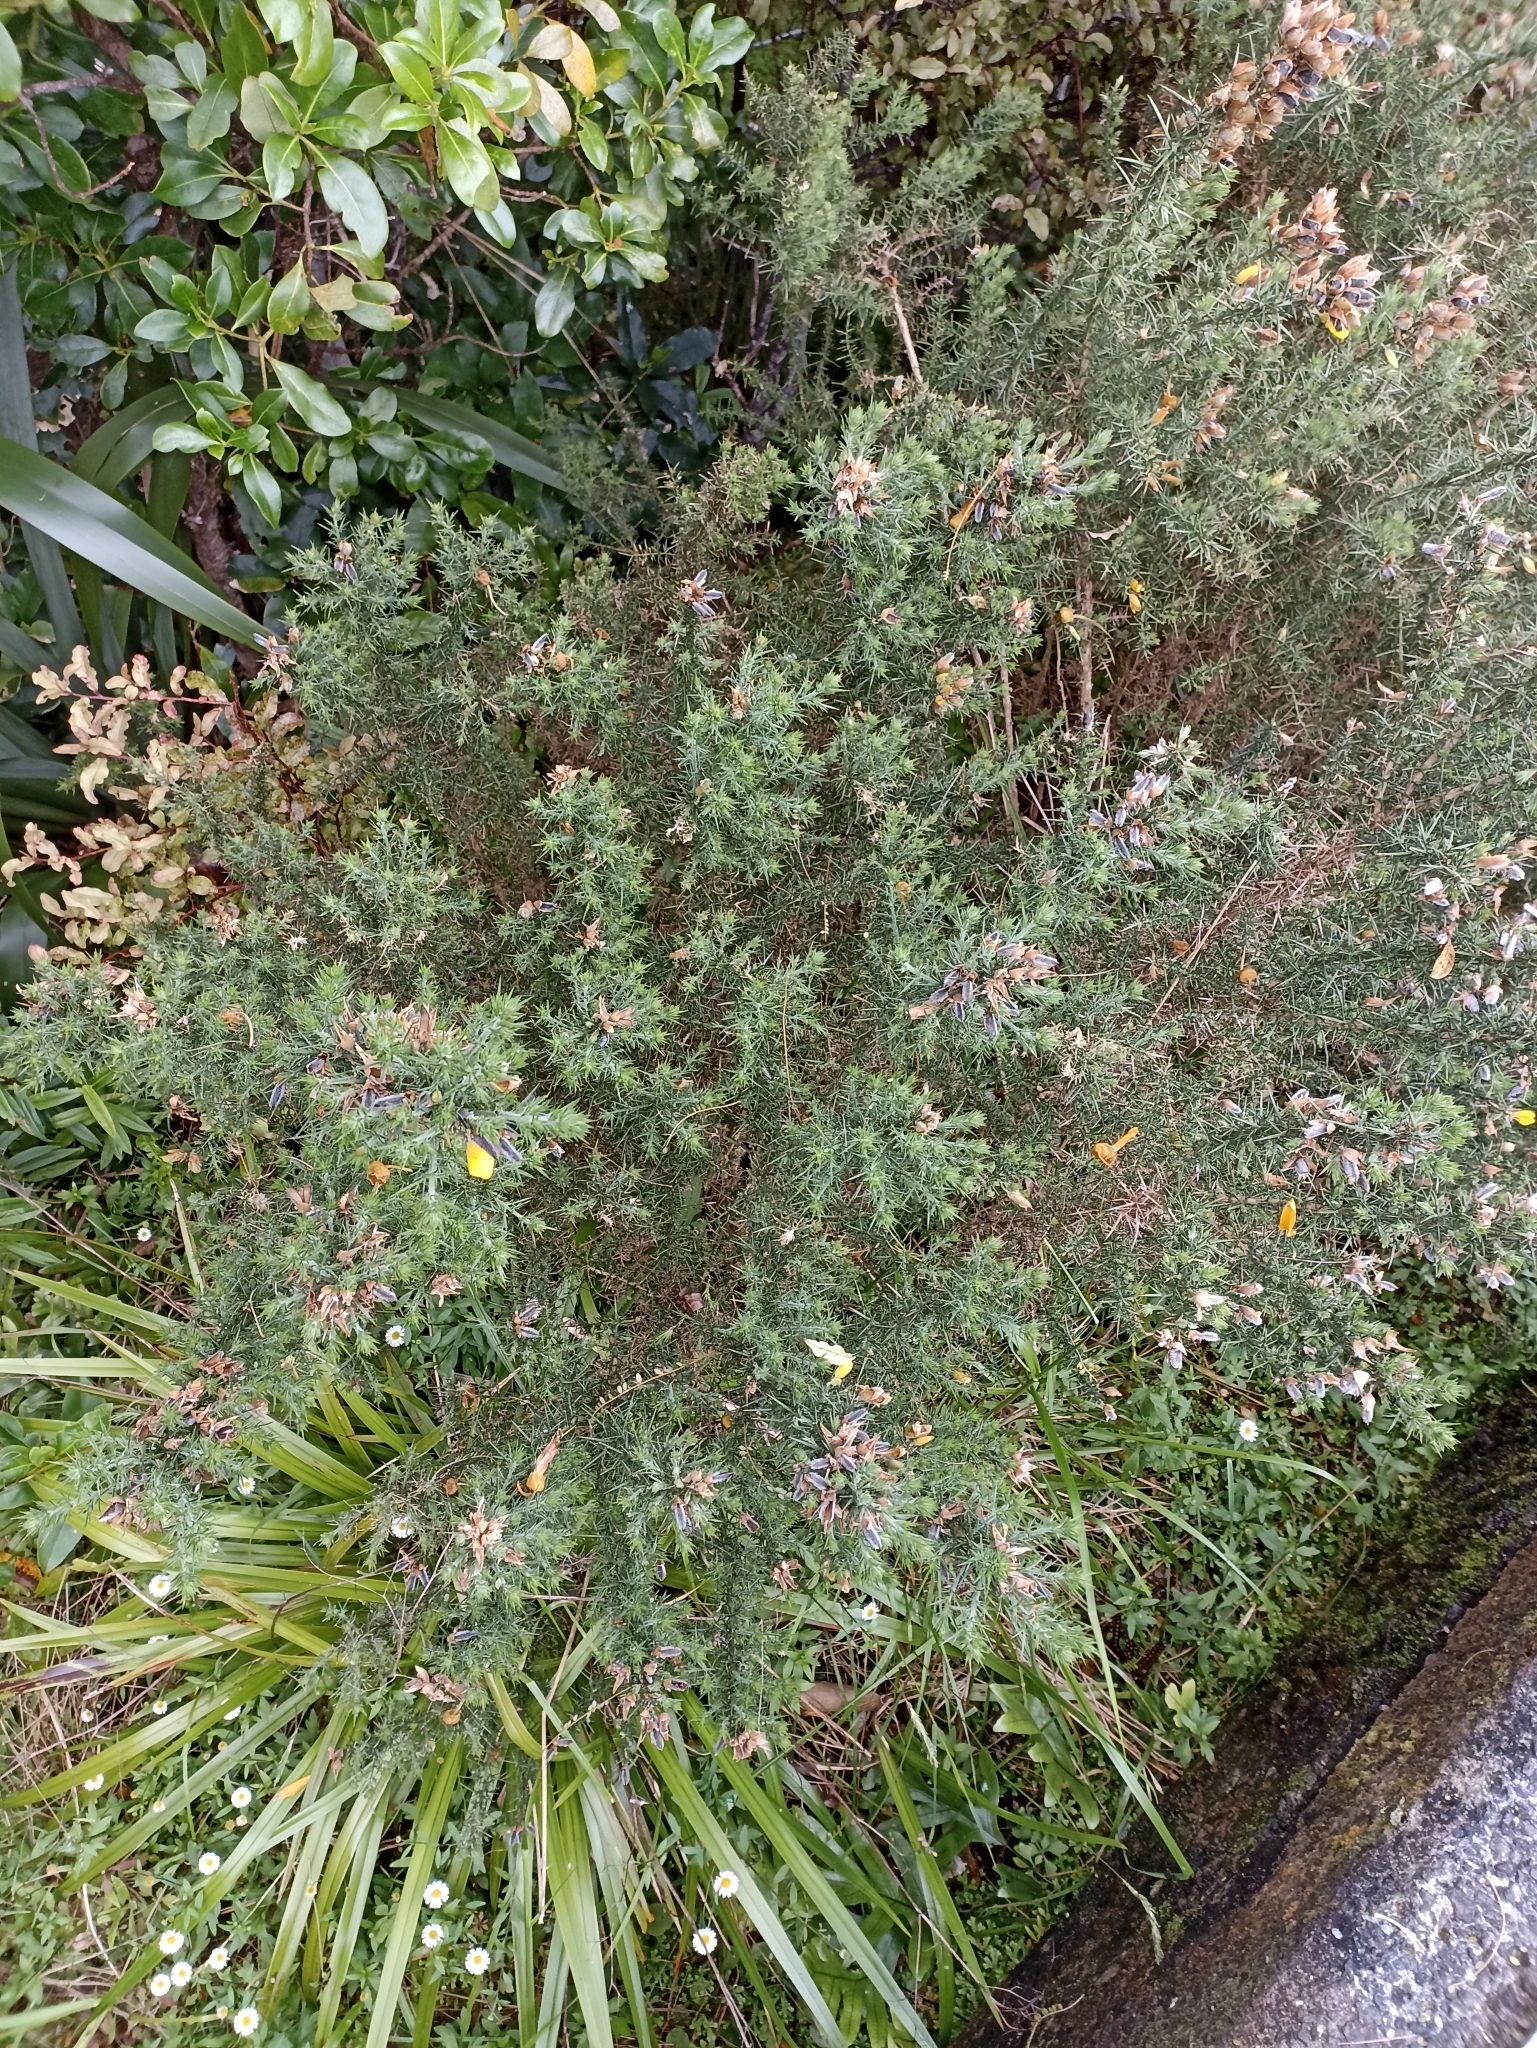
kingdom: Plantae
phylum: Tracheophyta
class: Magnoliopsida
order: Fabales
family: Fabaceae
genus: Ulex
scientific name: Ulex europaeus
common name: Common gorse
